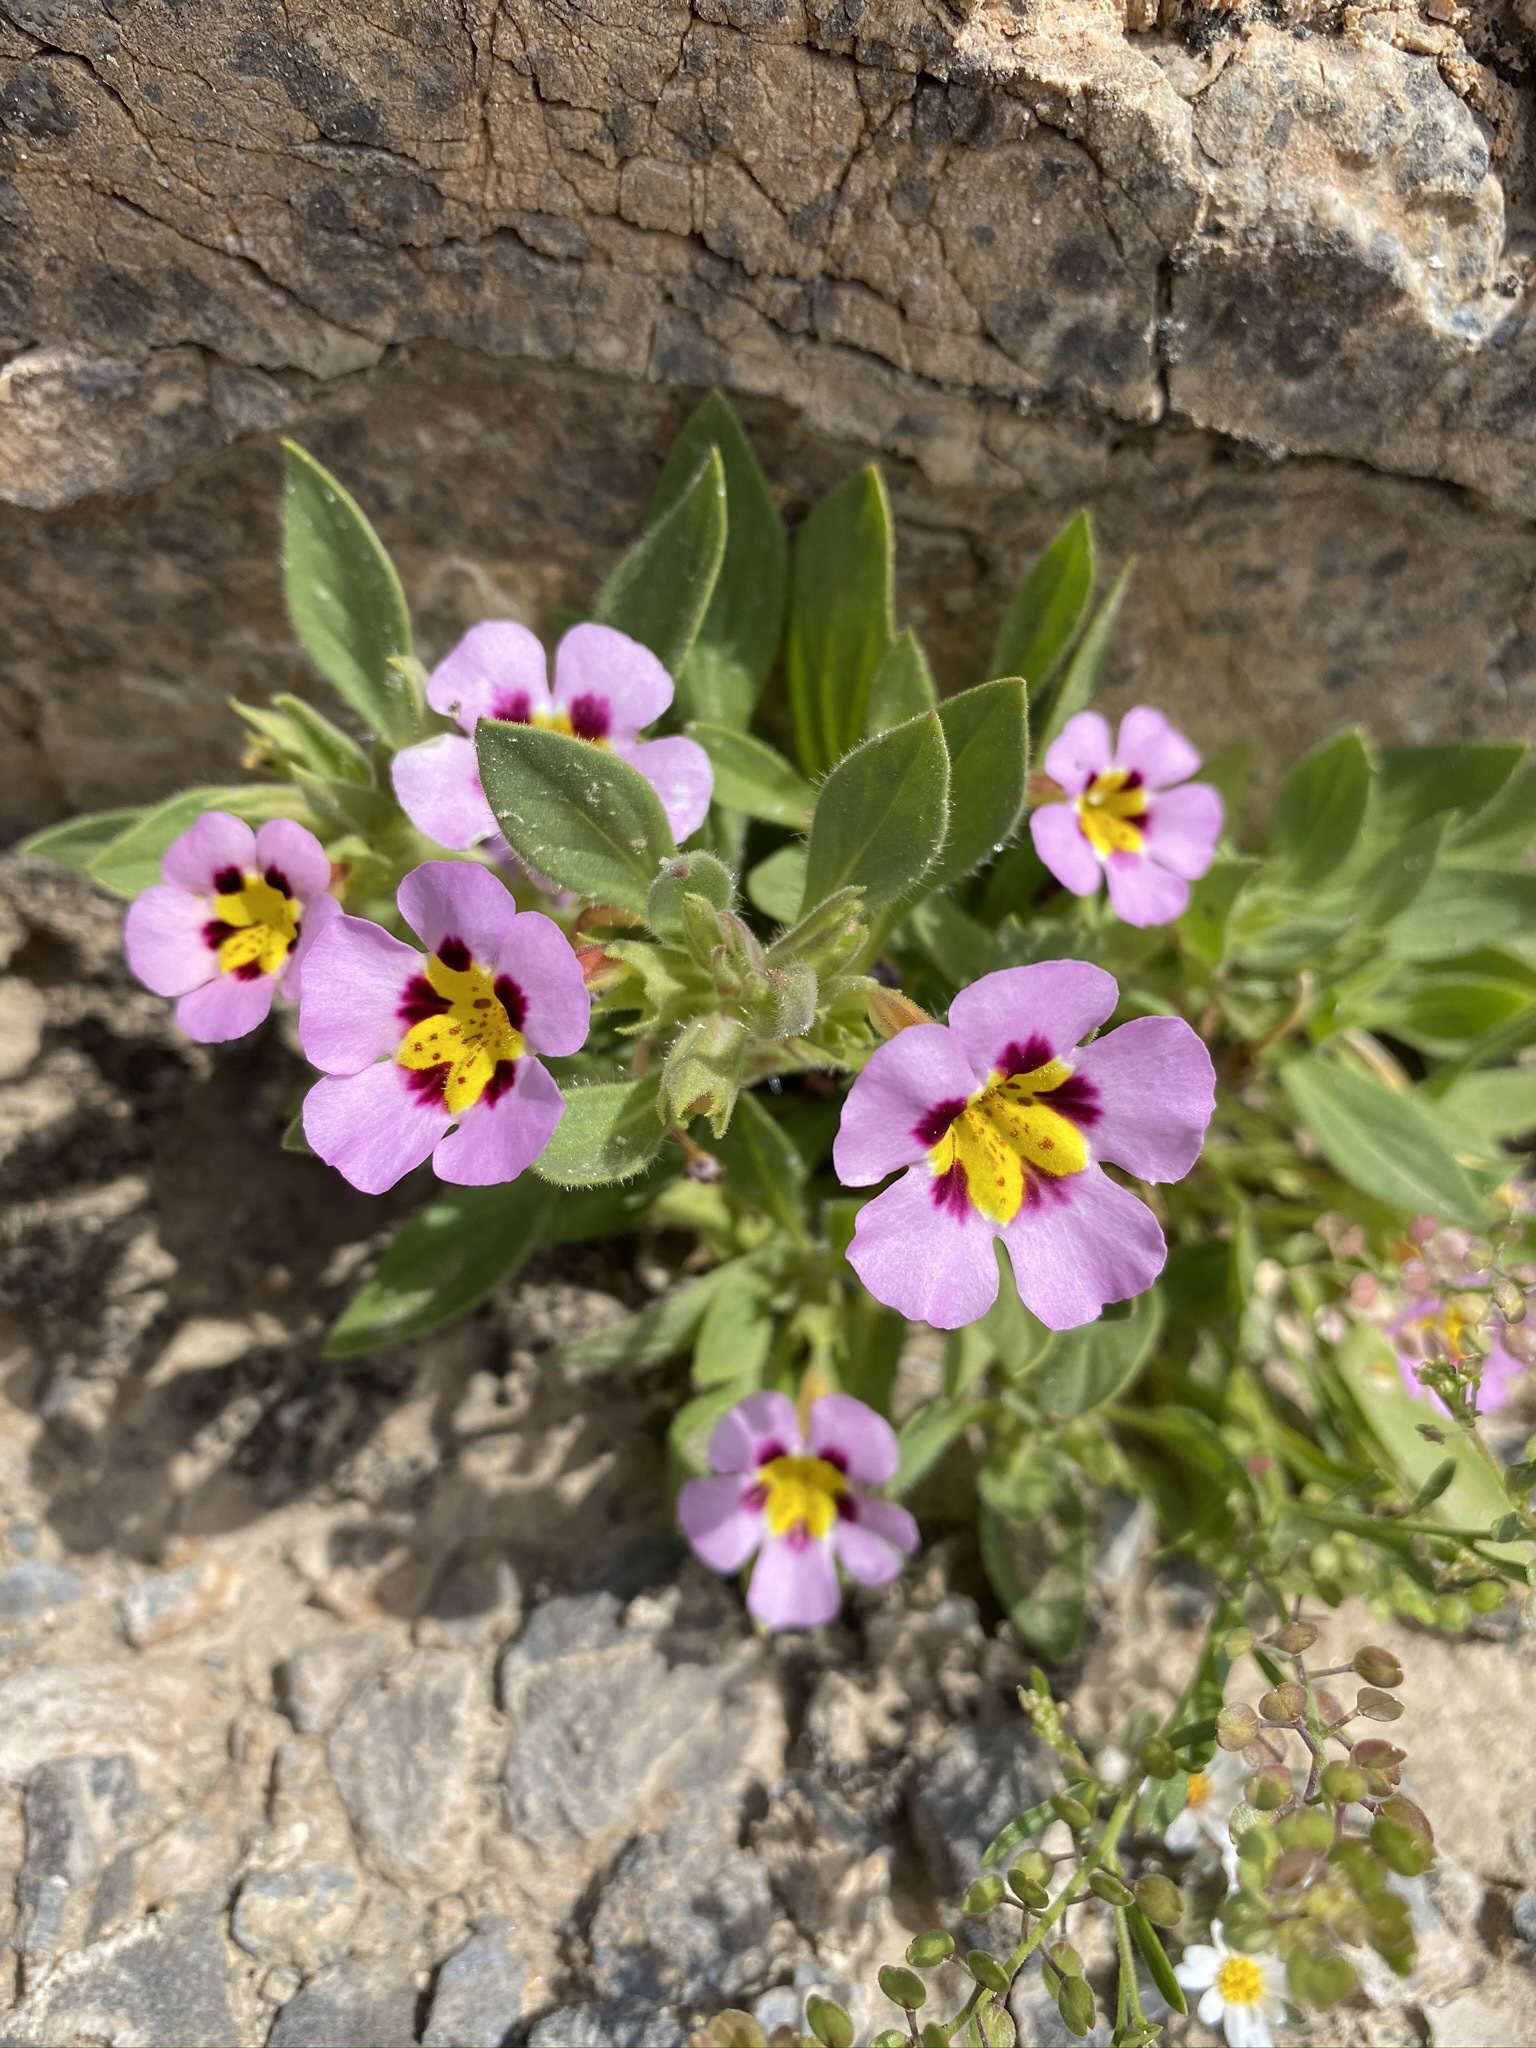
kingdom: Plantae
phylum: Tracheophyta
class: Magnoliopsida
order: Lamiales
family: Phrymaceae
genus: Diplacus
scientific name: Diplacus rupicola
